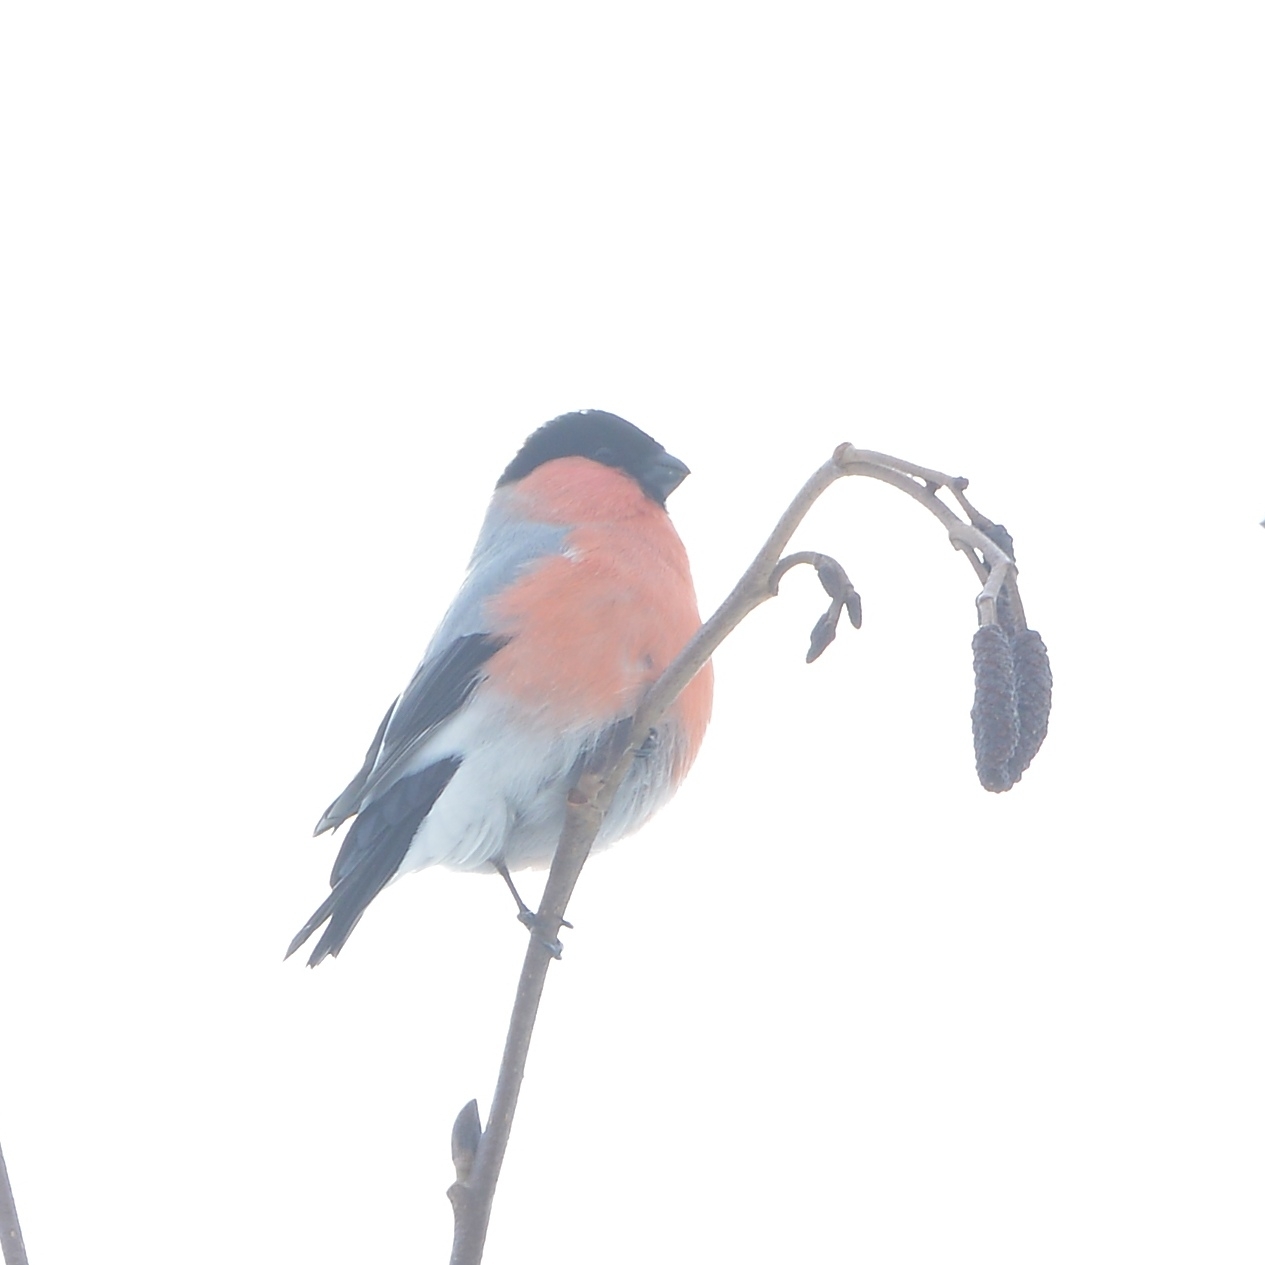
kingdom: Animalia
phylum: Chordata
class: Aves
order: Passeriformes
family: Fringillidae
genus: Pyrrhula
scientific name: Pyrrhula pyrrhula
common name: Eurasian bullfinch
